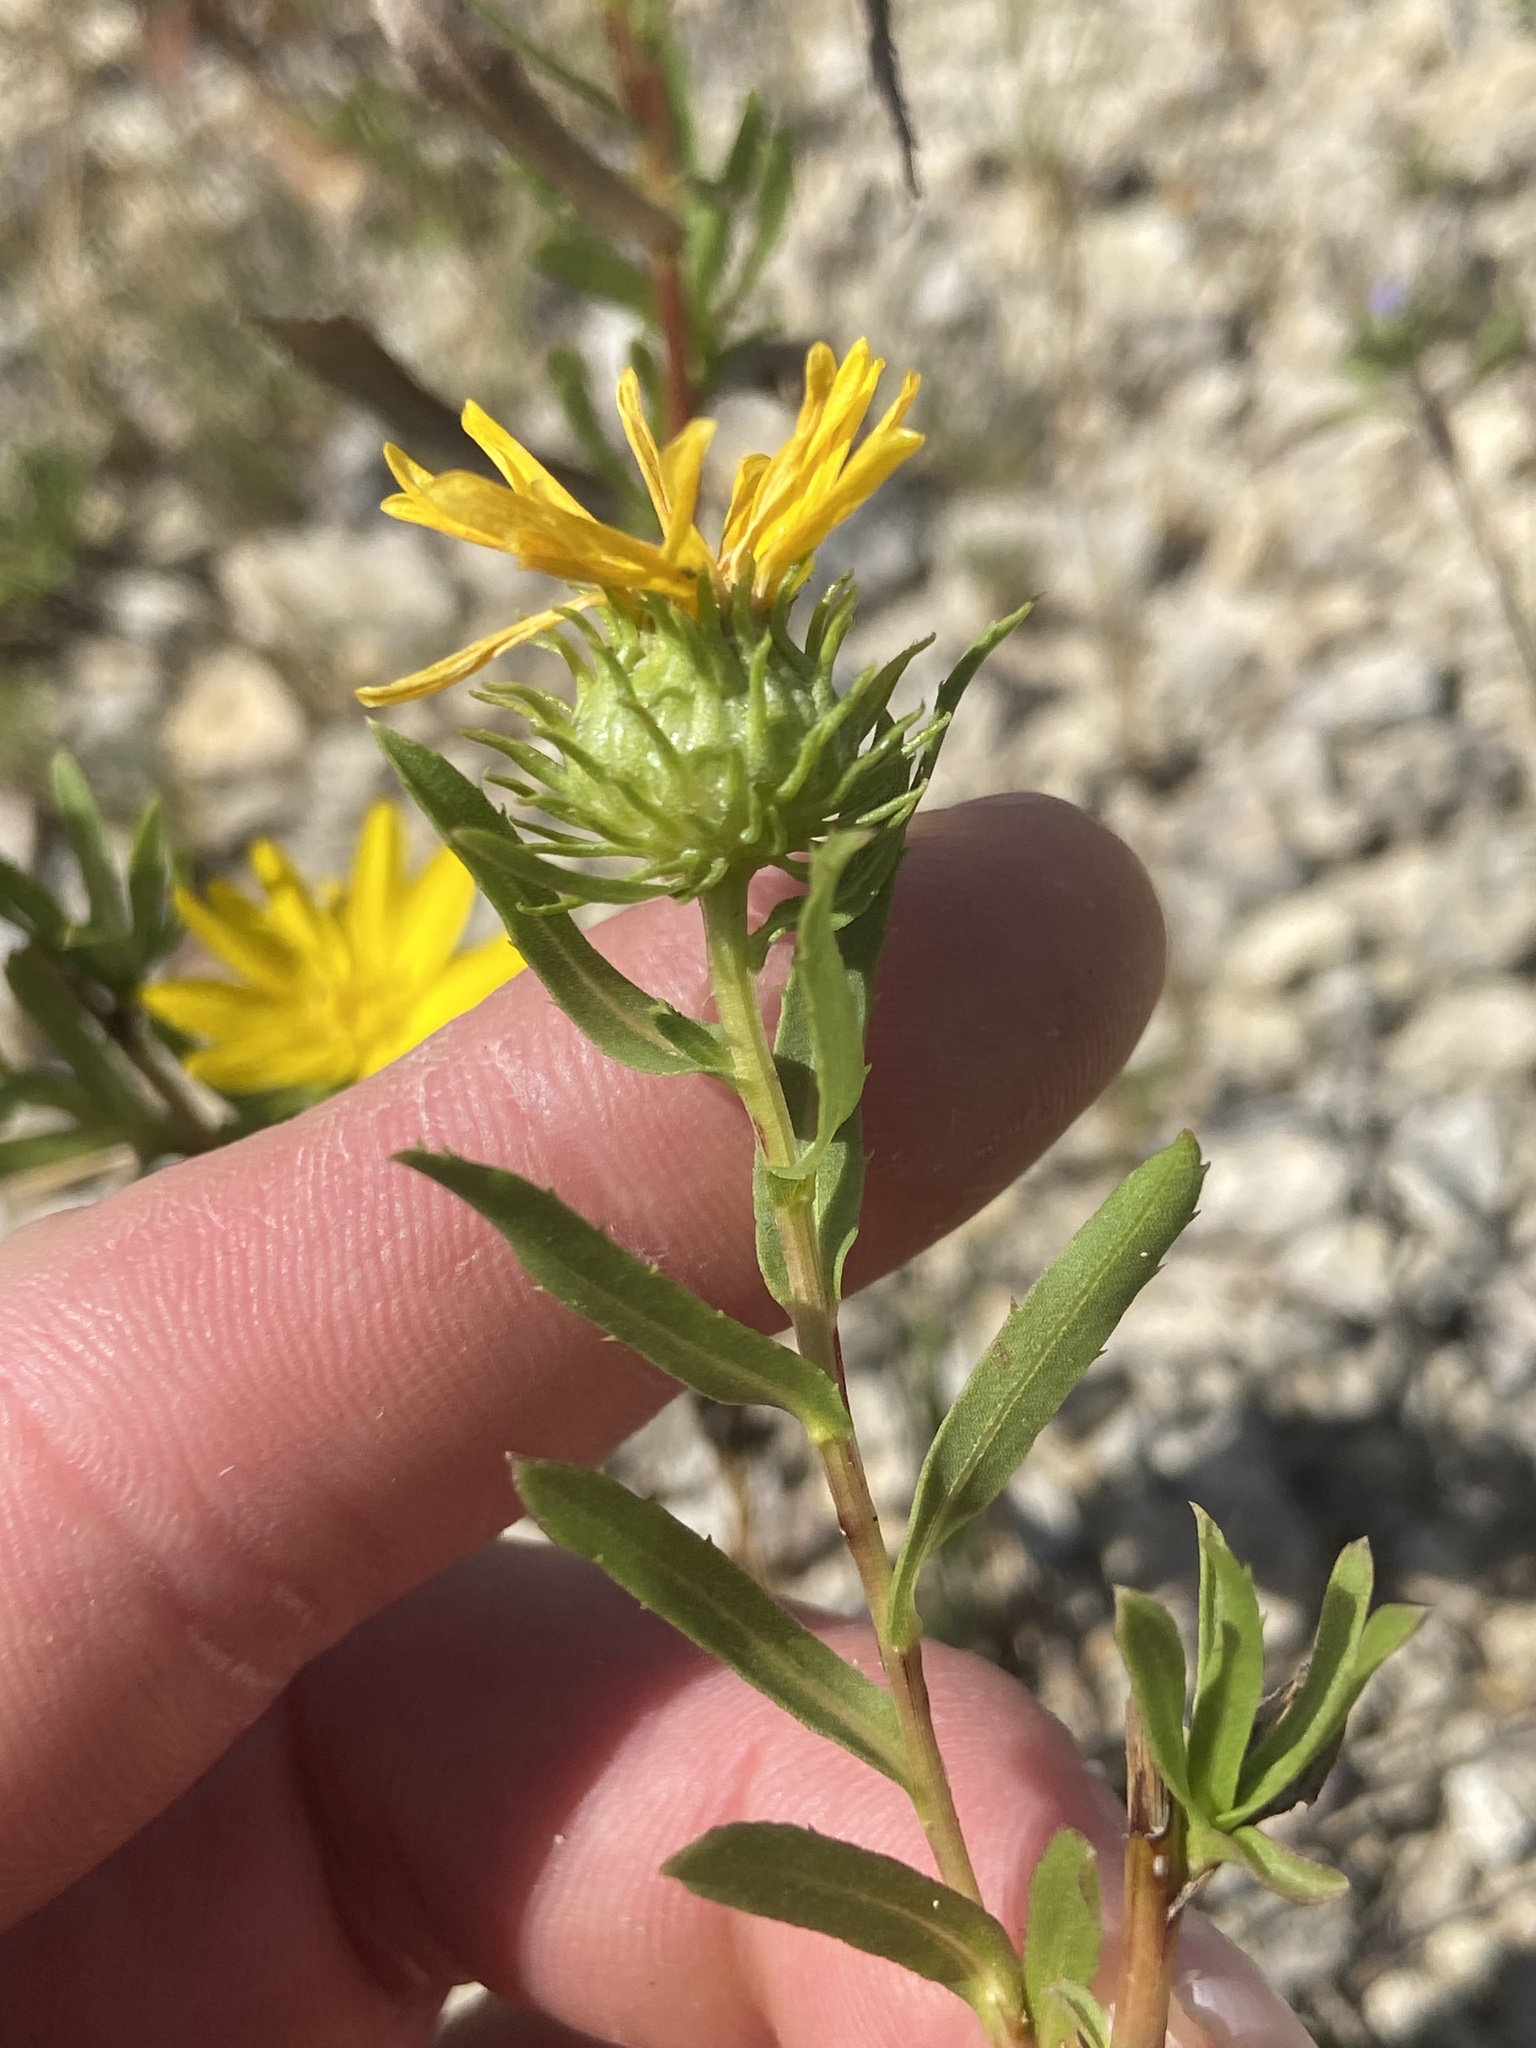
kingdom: Plantae
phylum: Tracheophyta
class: Magnoliopsida
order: Asterales
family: Asteraceae
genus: Grindelia
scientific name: Grindelia lanceolata
